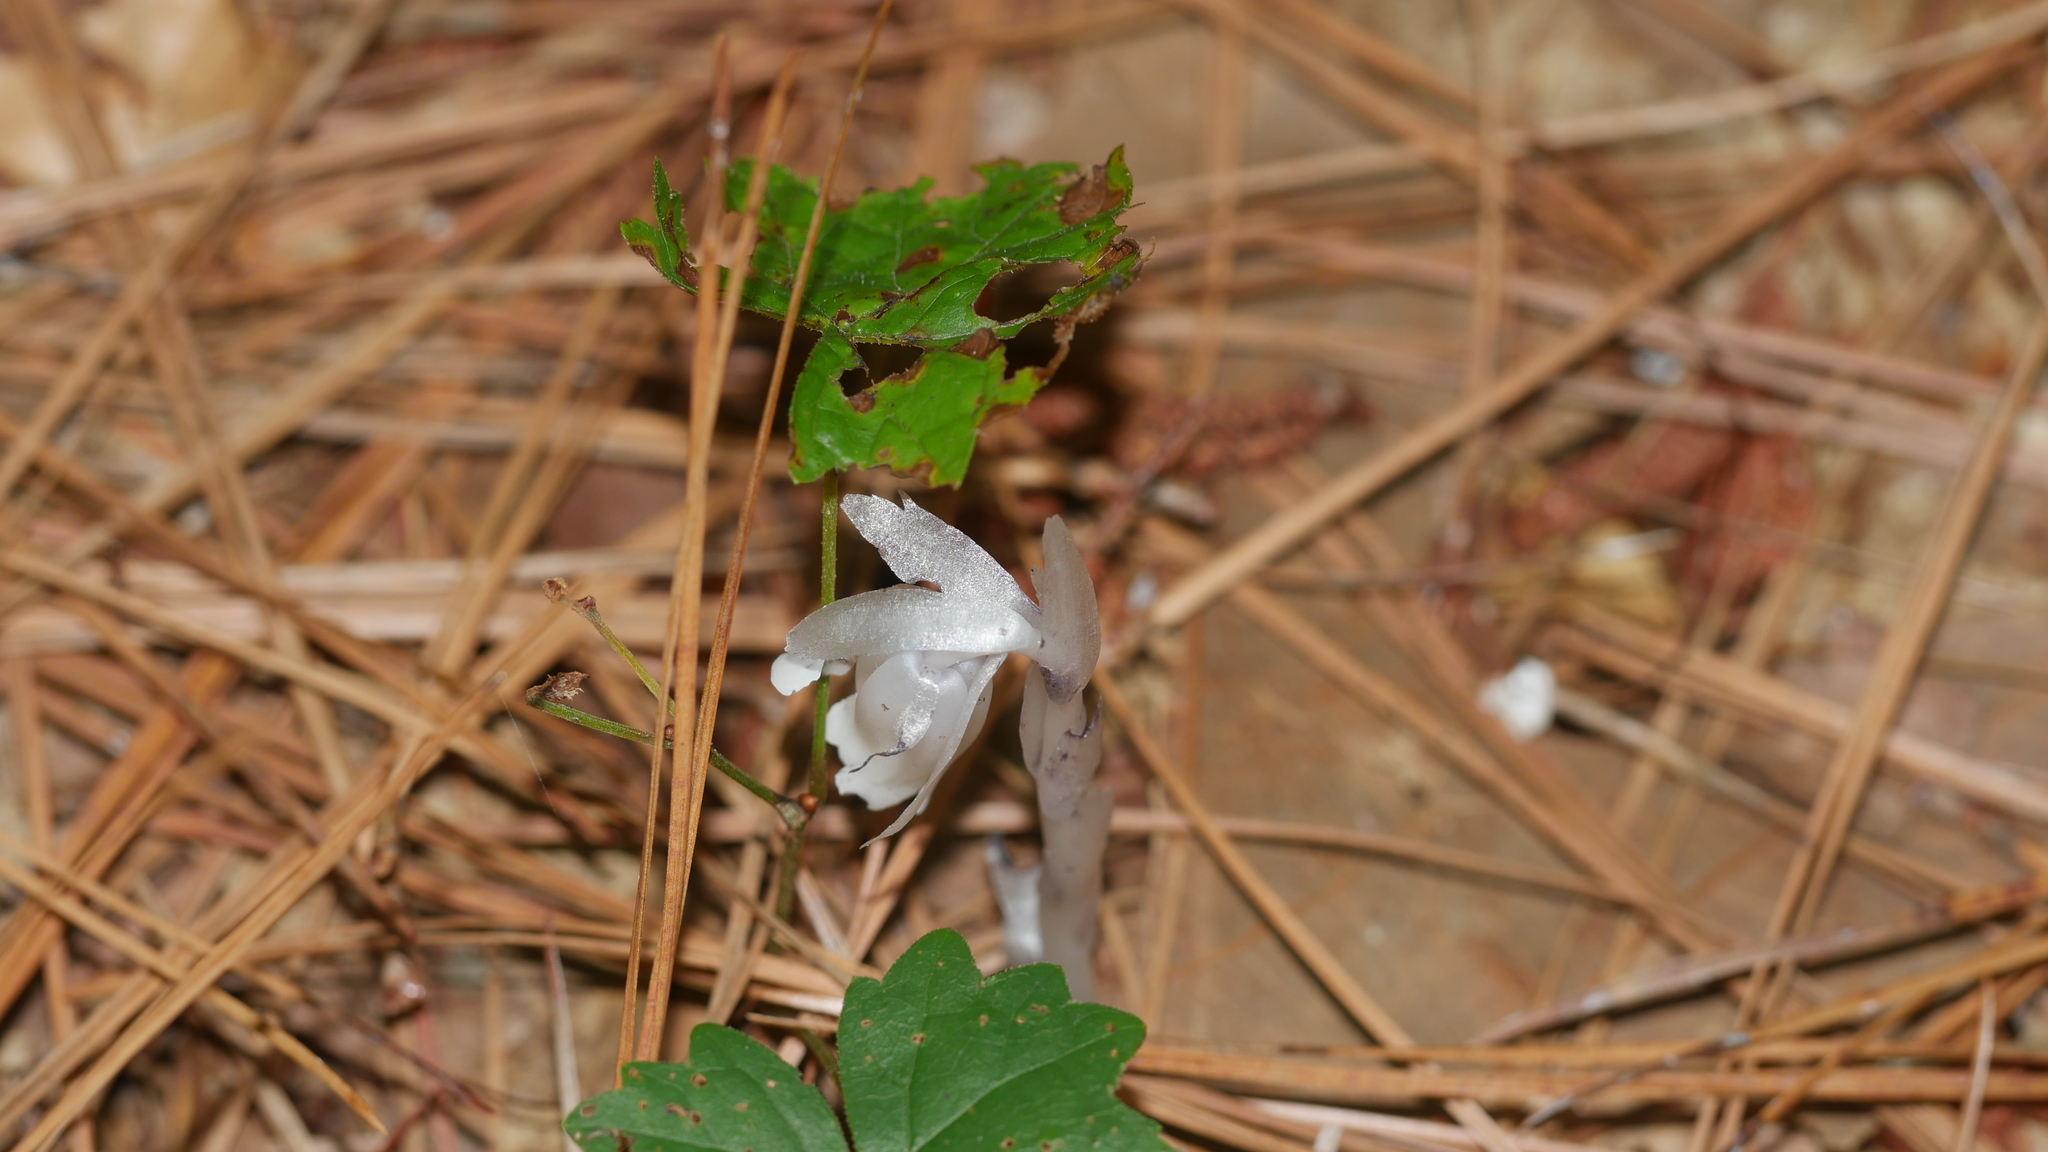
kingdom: Plantae
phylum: Tracheophyta
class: Magnoliopsida
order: Ericales
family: Ericaceae
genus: Monotropa
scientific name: Monotropa uniflora
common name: Convulsion root
